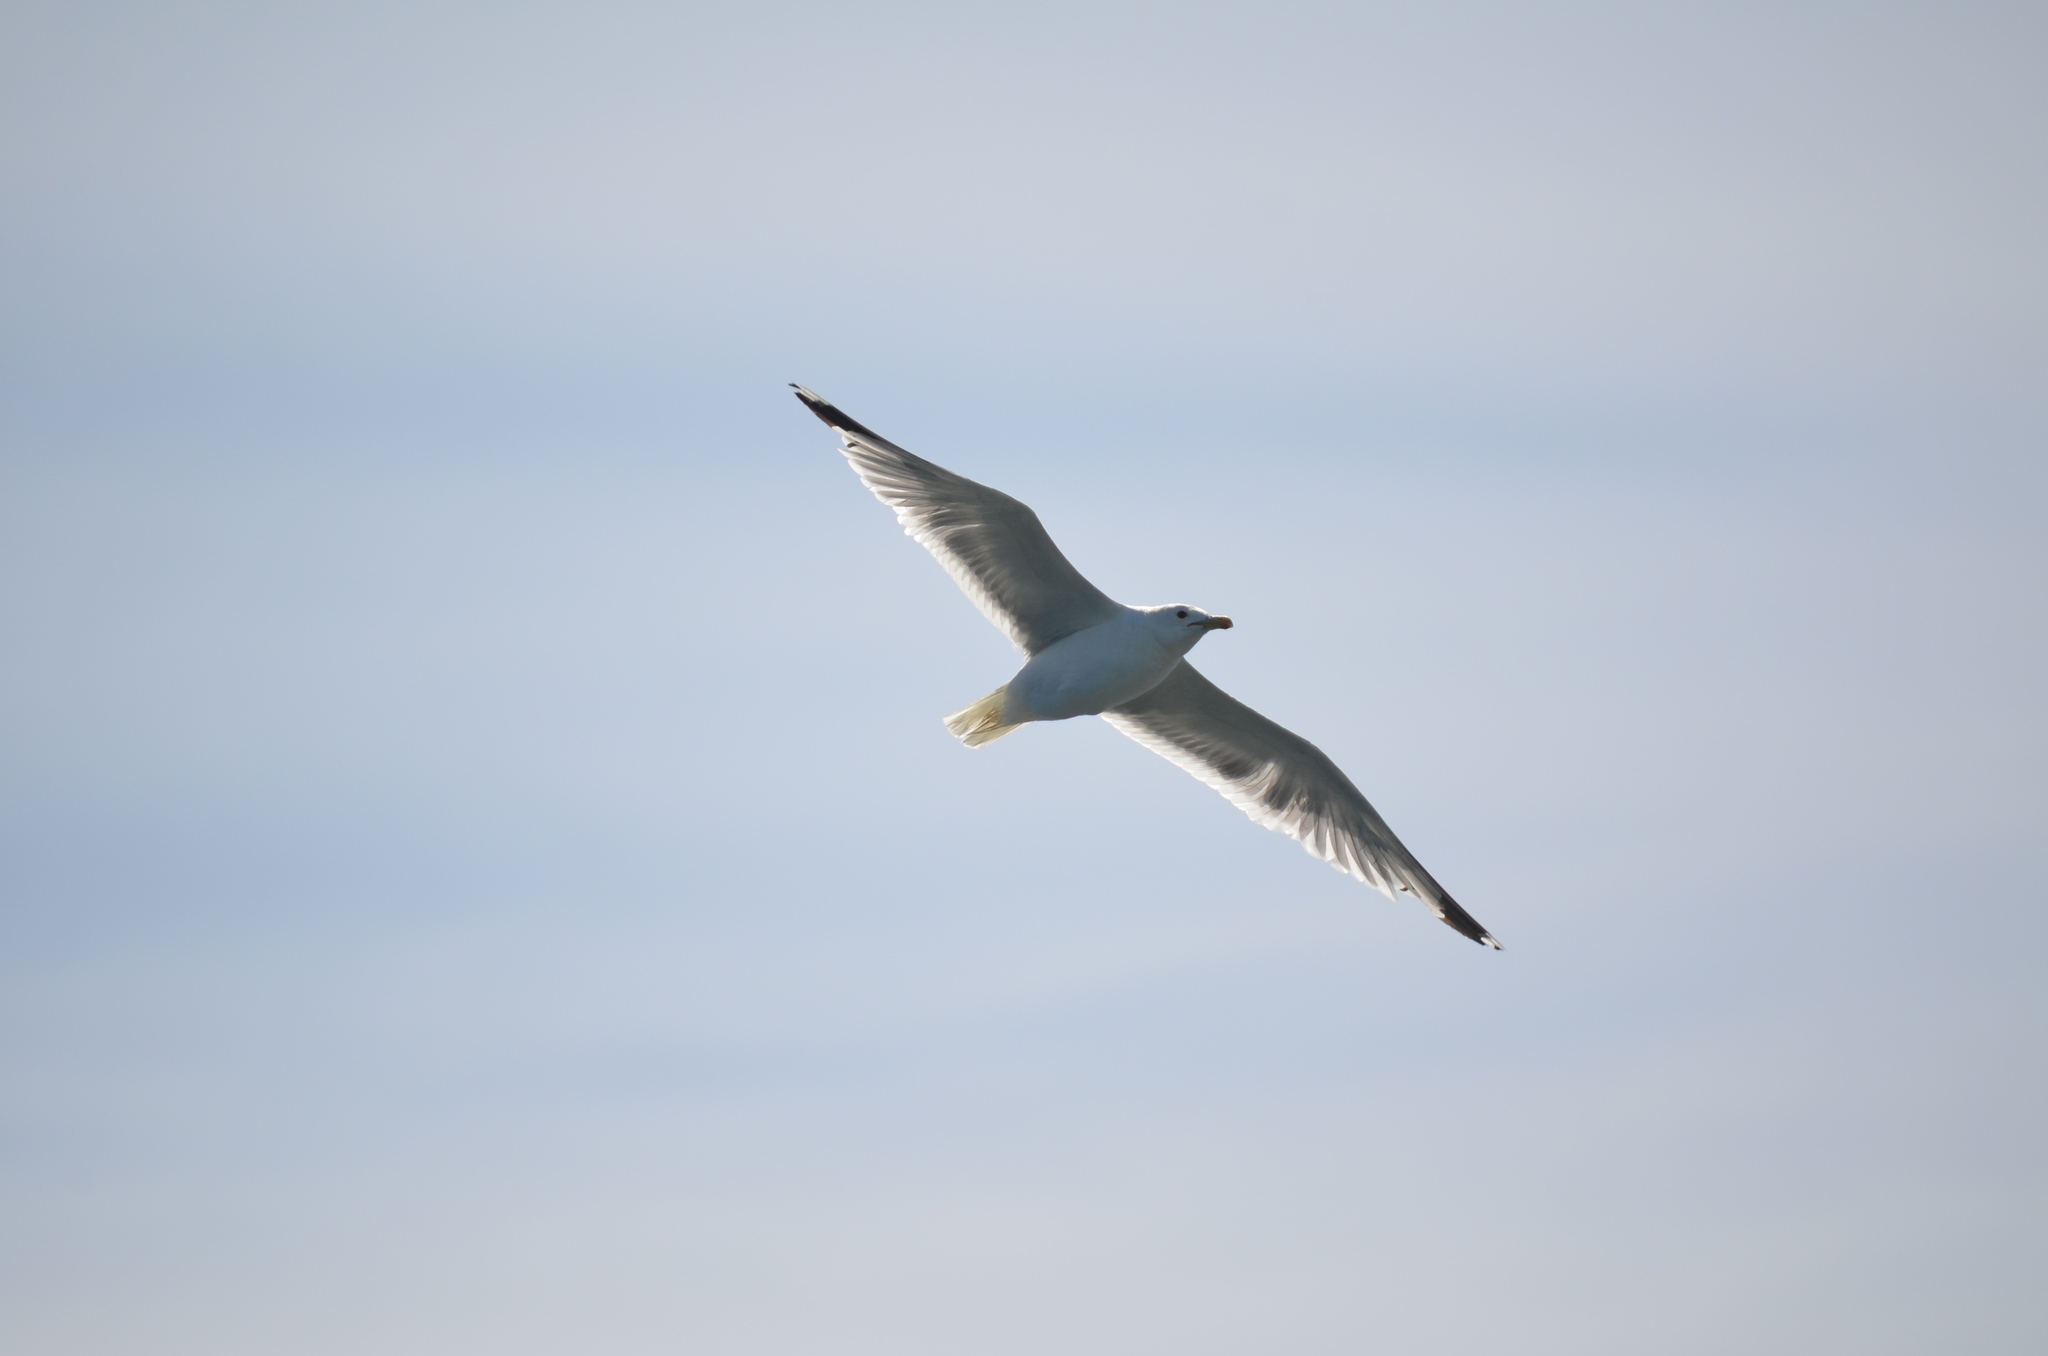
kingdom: Animalia
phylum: Chordata
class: Aves
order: Charadriiformes
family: Laridae
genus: Larus
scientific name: Larus californicus
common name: California gull
